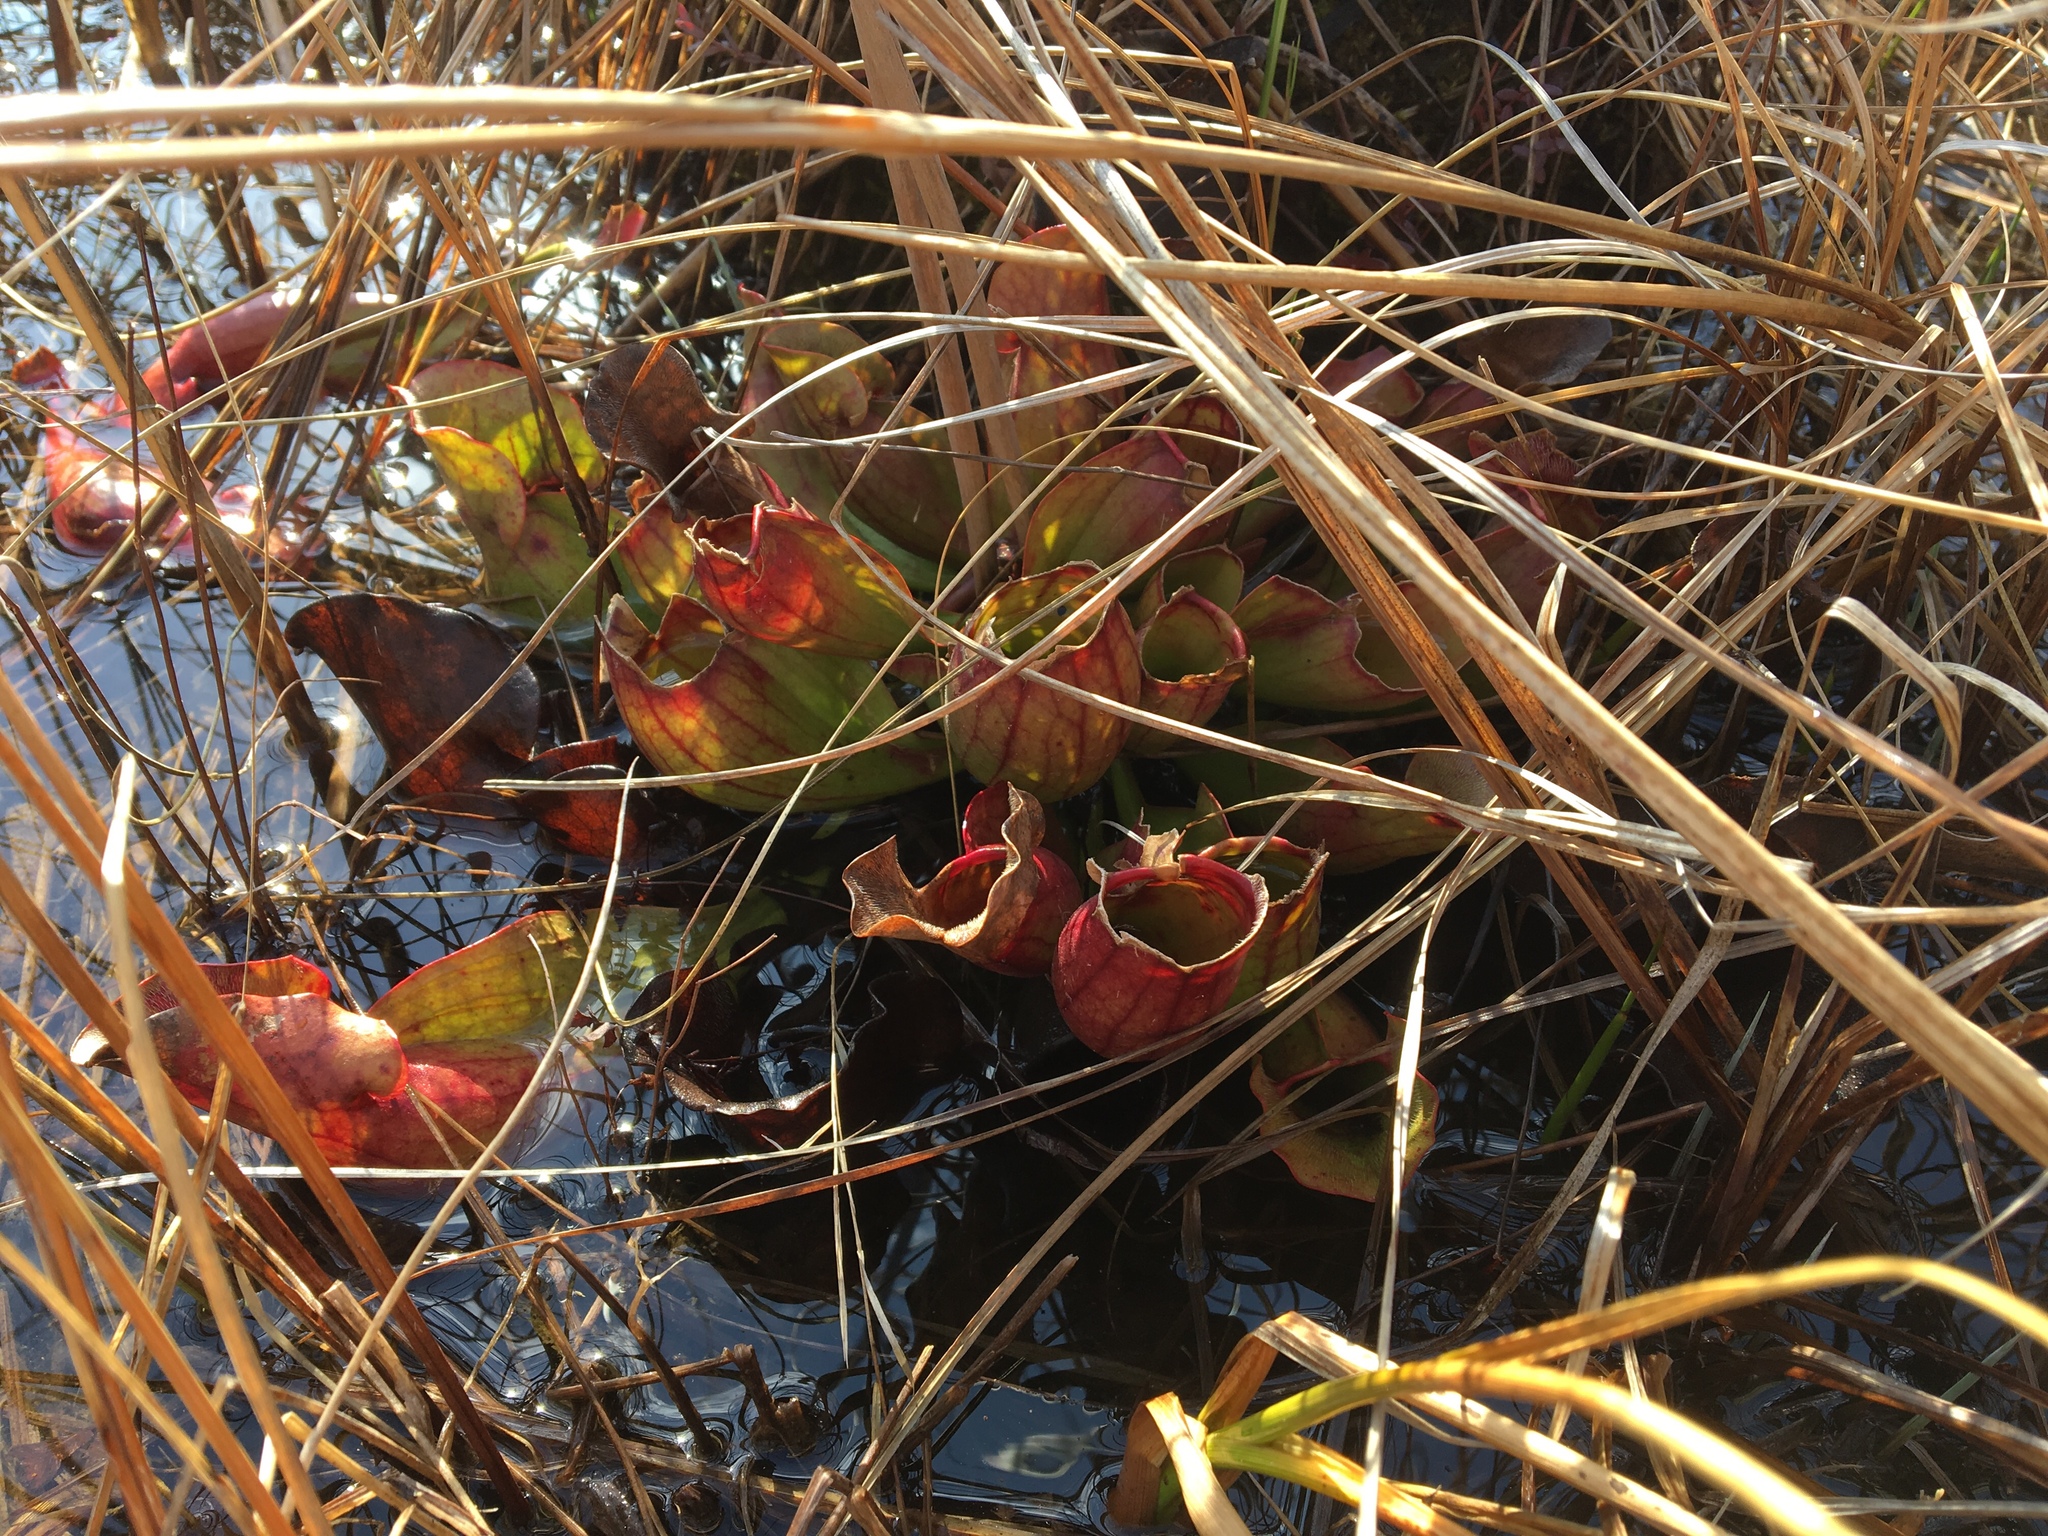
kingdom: Plantae
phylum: Tracheophyta
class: Magnoliopsida
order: Ericales
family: Sarraceniaceae
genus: Sarracenia
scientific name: Sarracenia purpurea
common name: Pitcherplant
